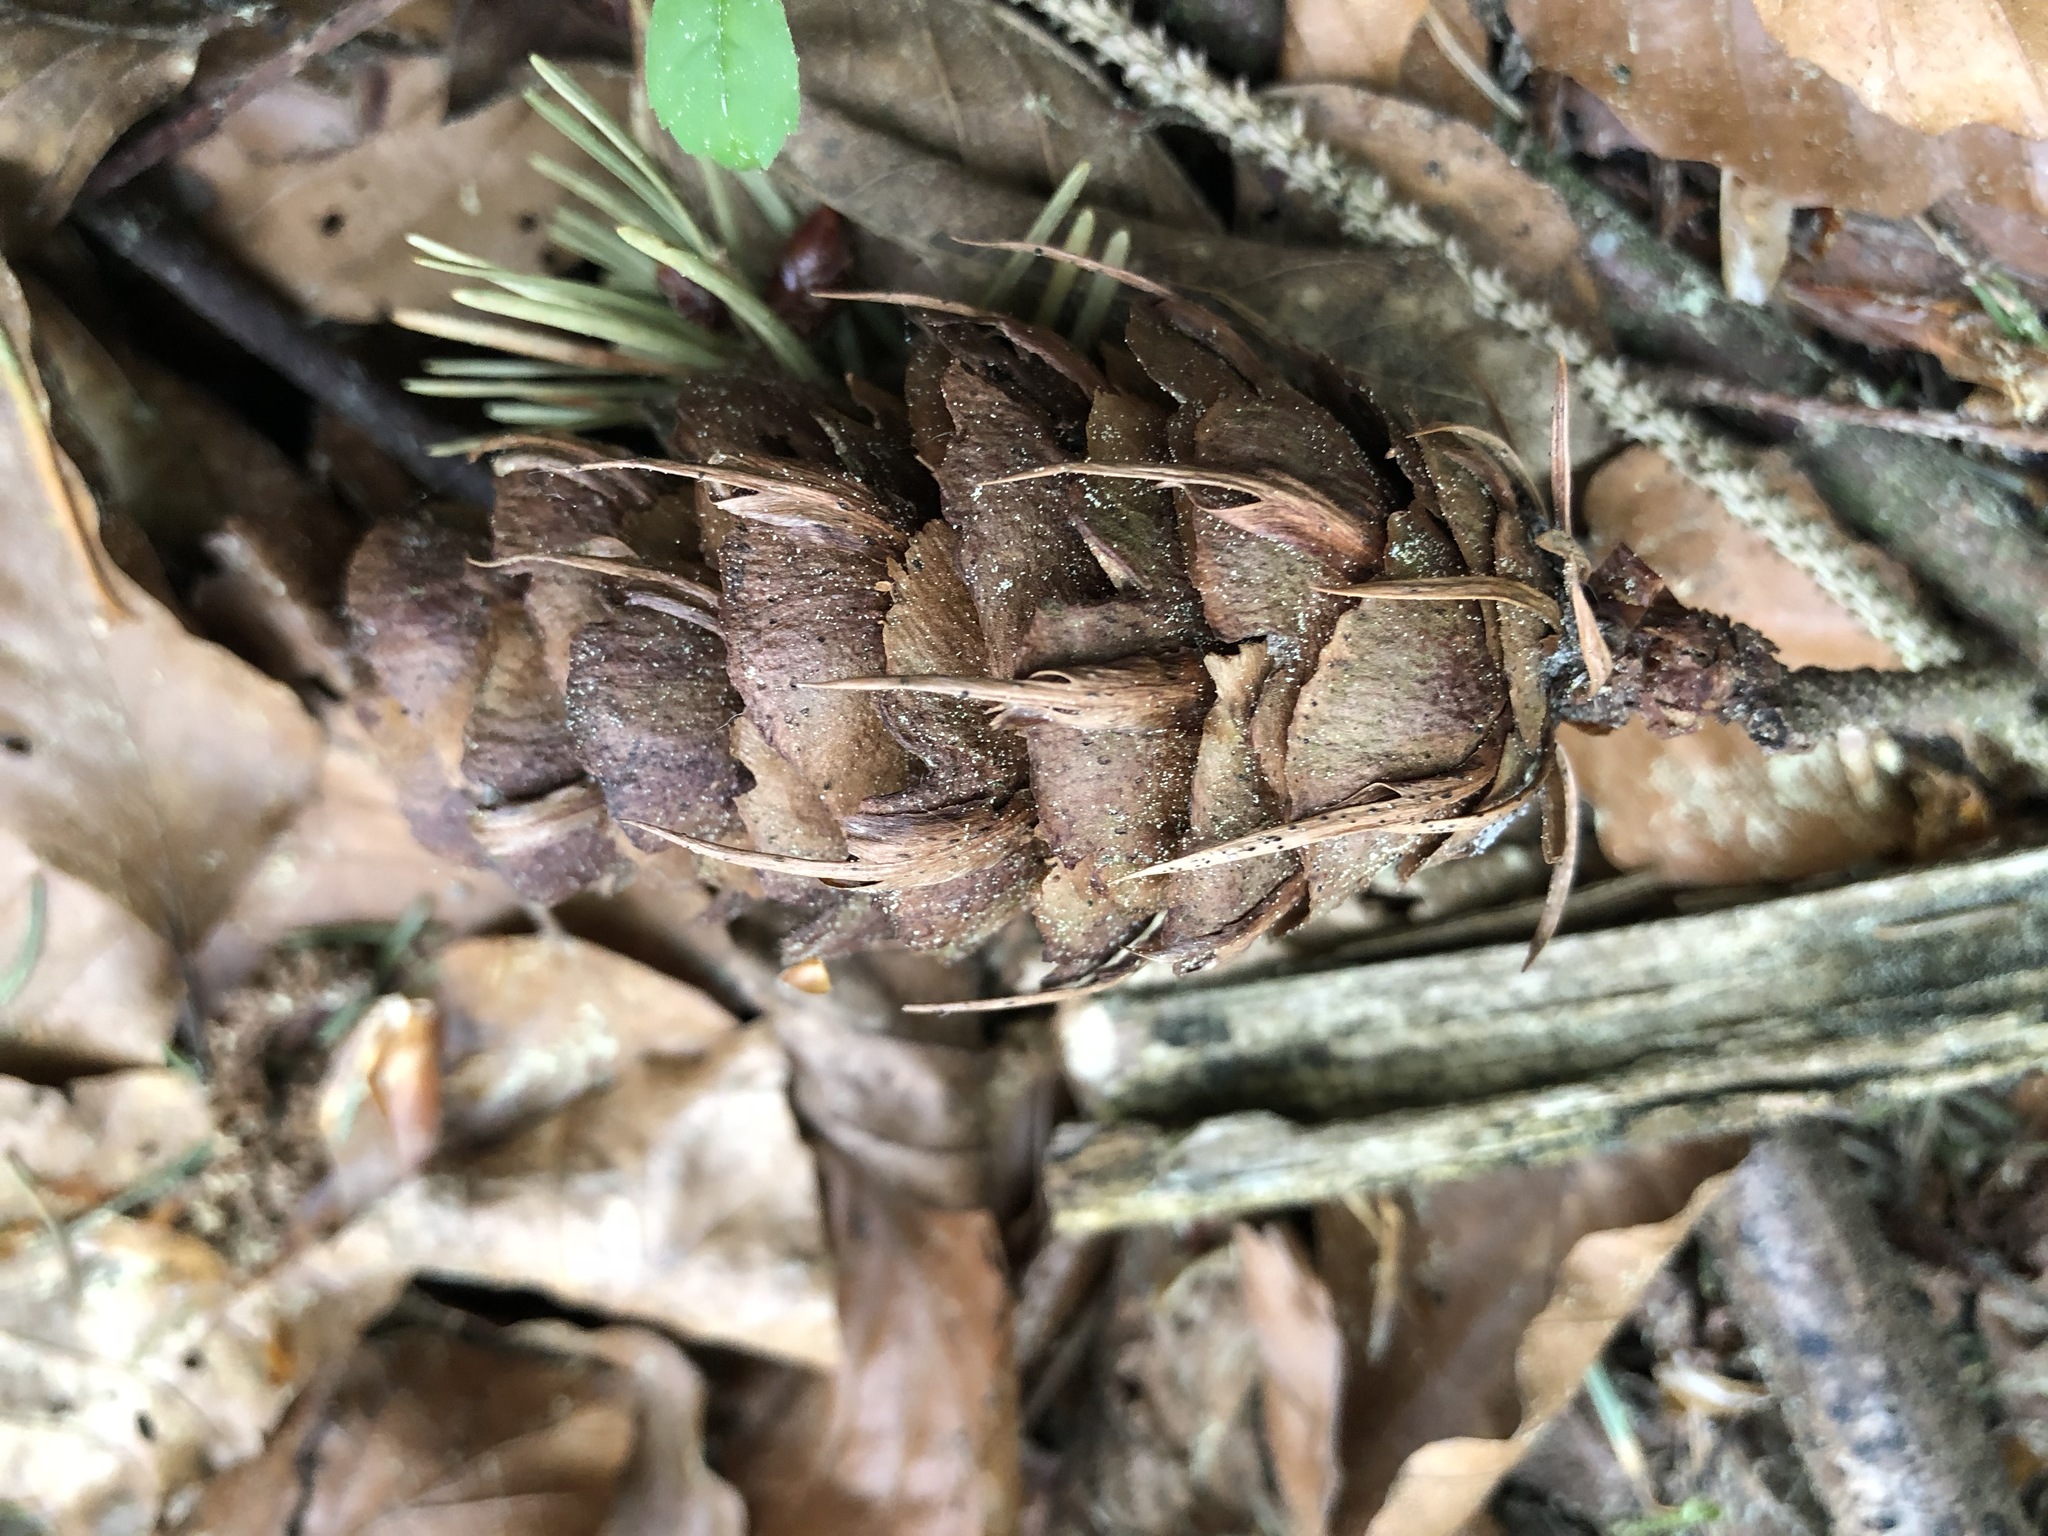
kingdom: Plantae
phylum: Tracheophyta
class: Pinopsida
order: Pinales
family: Pinaceae
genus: Pseudotsuga
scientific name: Pseudotsuga menziesii
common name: Douglas fir
